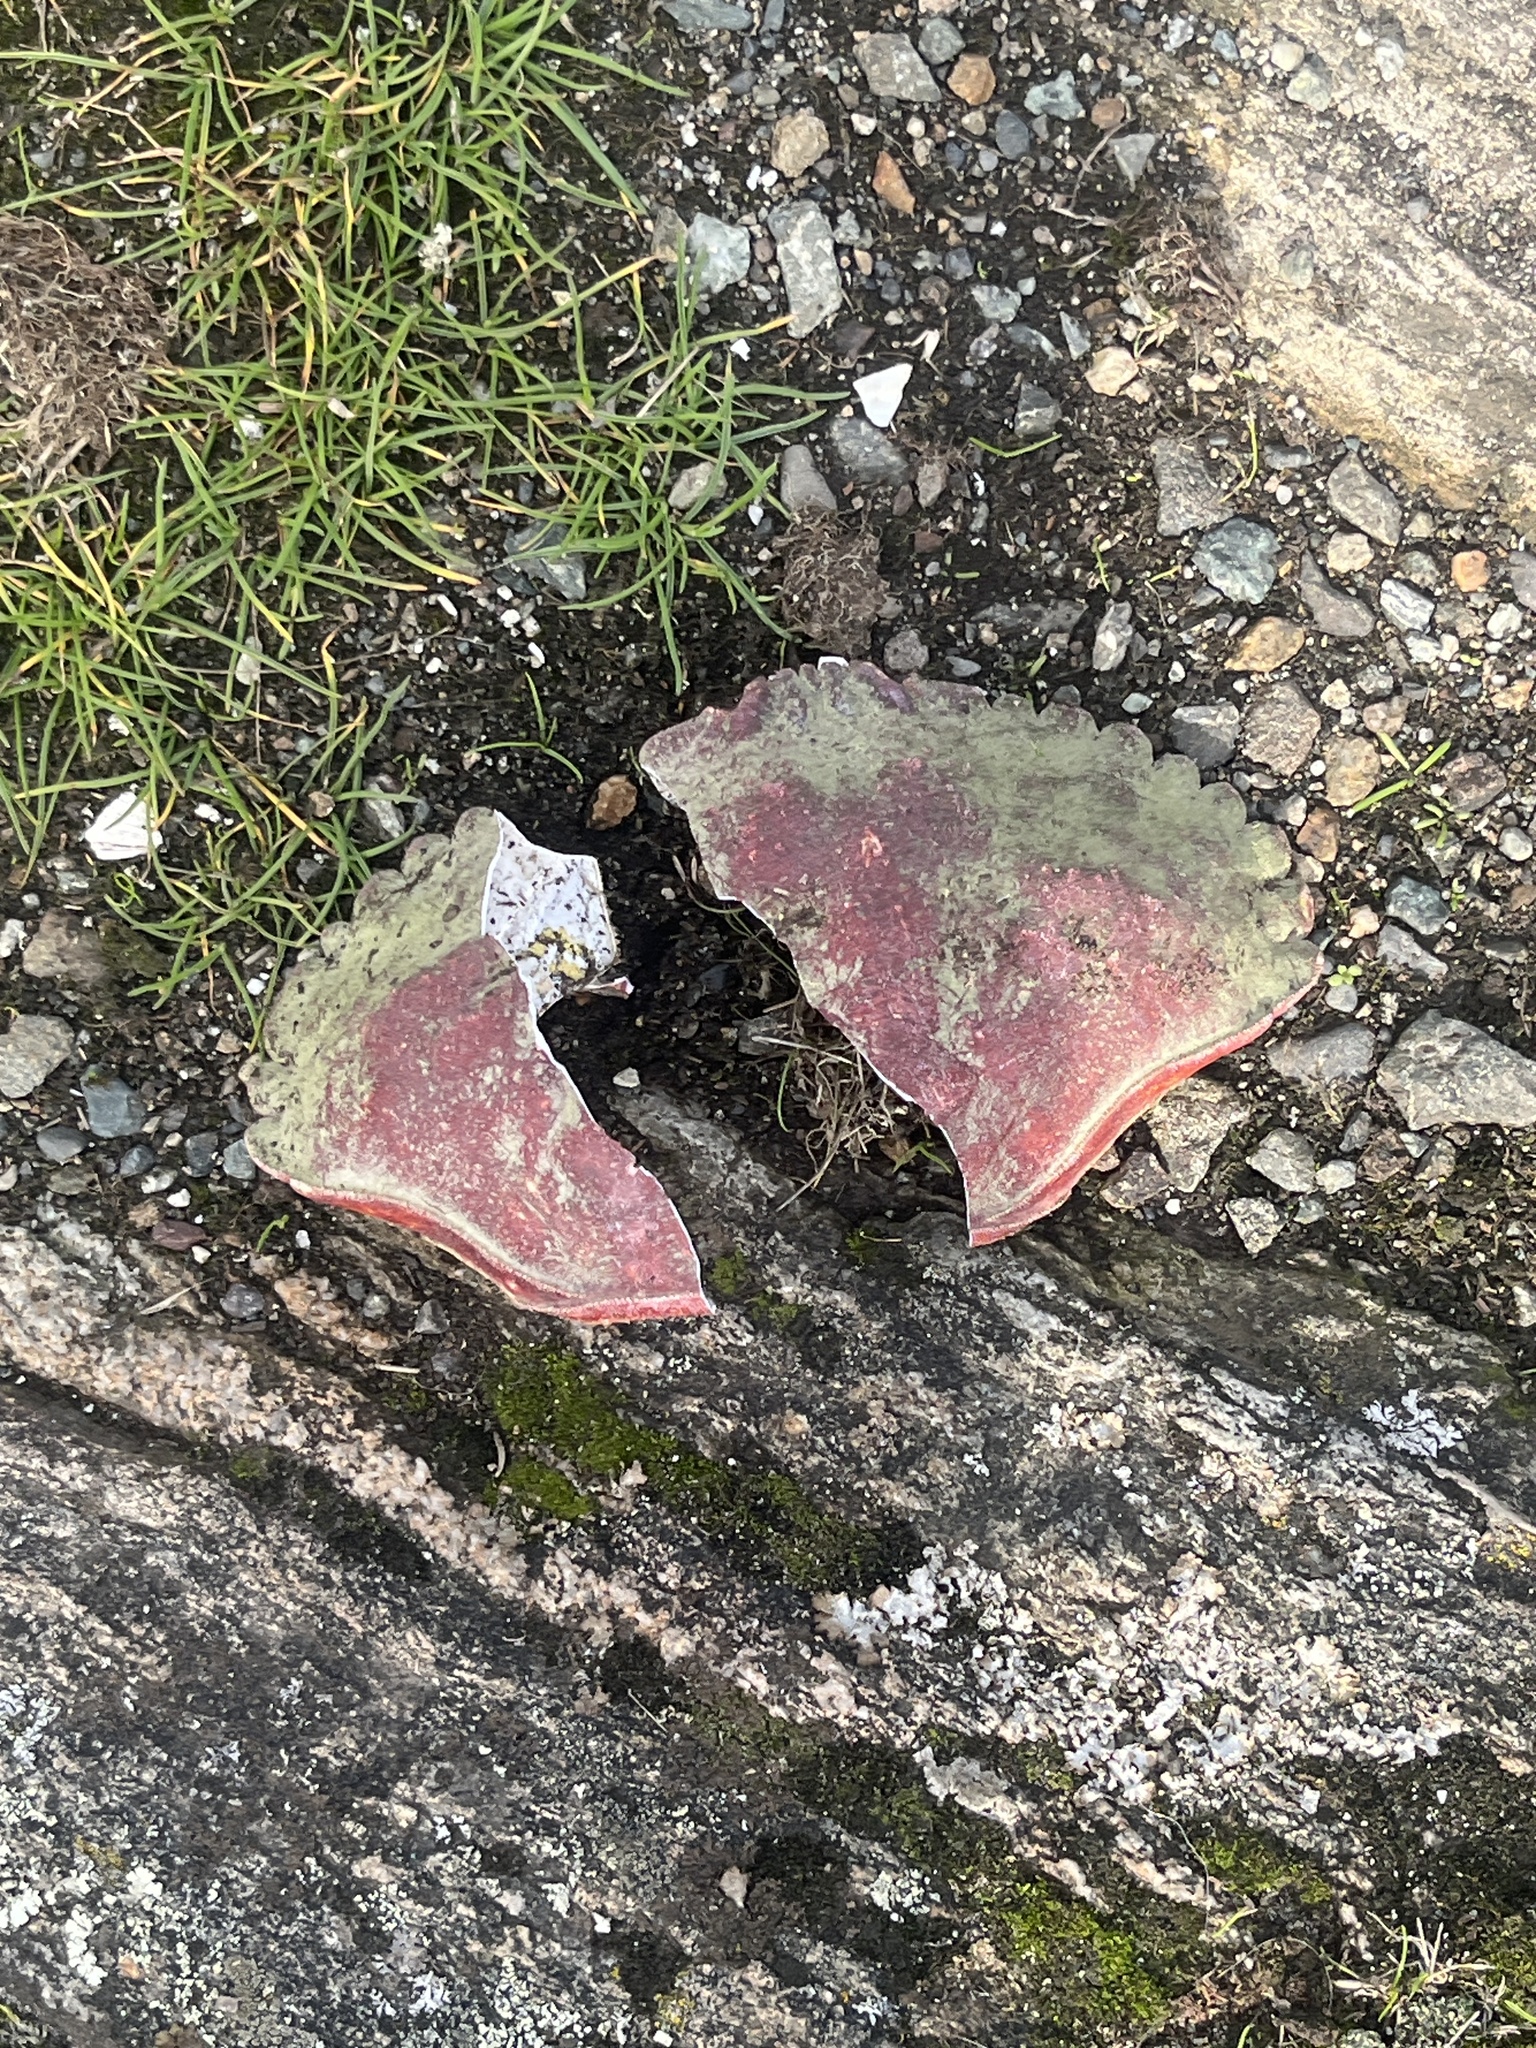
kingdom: Animalia
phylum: Arthropoda
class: Malacostraca
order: Decapoda
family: Cancridae
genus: Cancer
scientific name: Cancer productus
